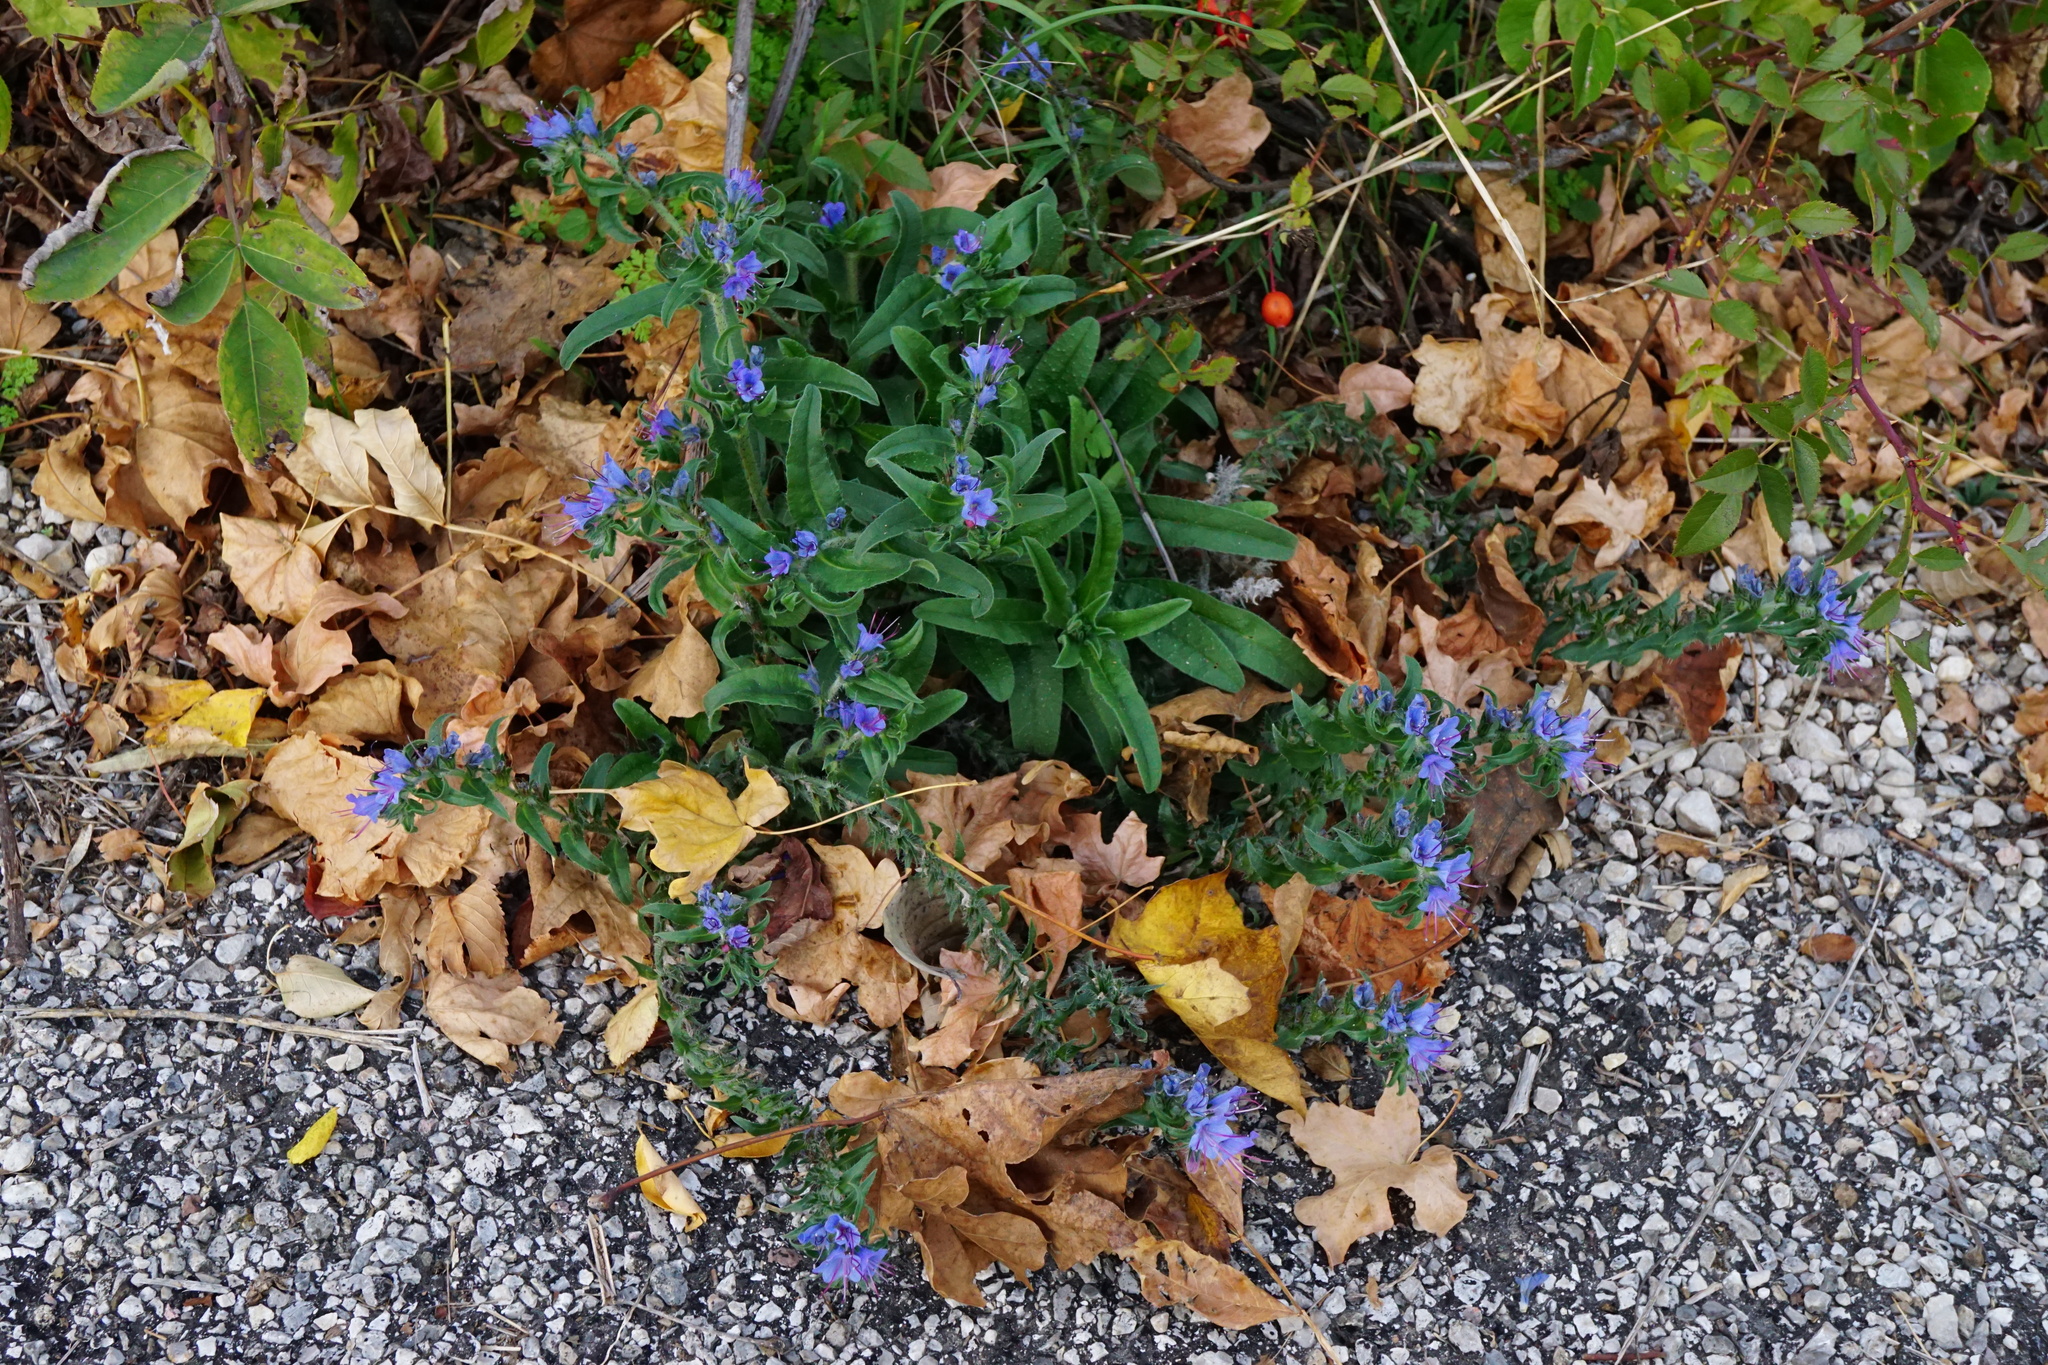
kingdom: Plantae
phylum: Tracheophyta
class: Magnoliopsida
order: Boraginales
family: Boraginaceae
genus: Echium
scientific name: Echium vulgare
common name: Common viper's bugloss
